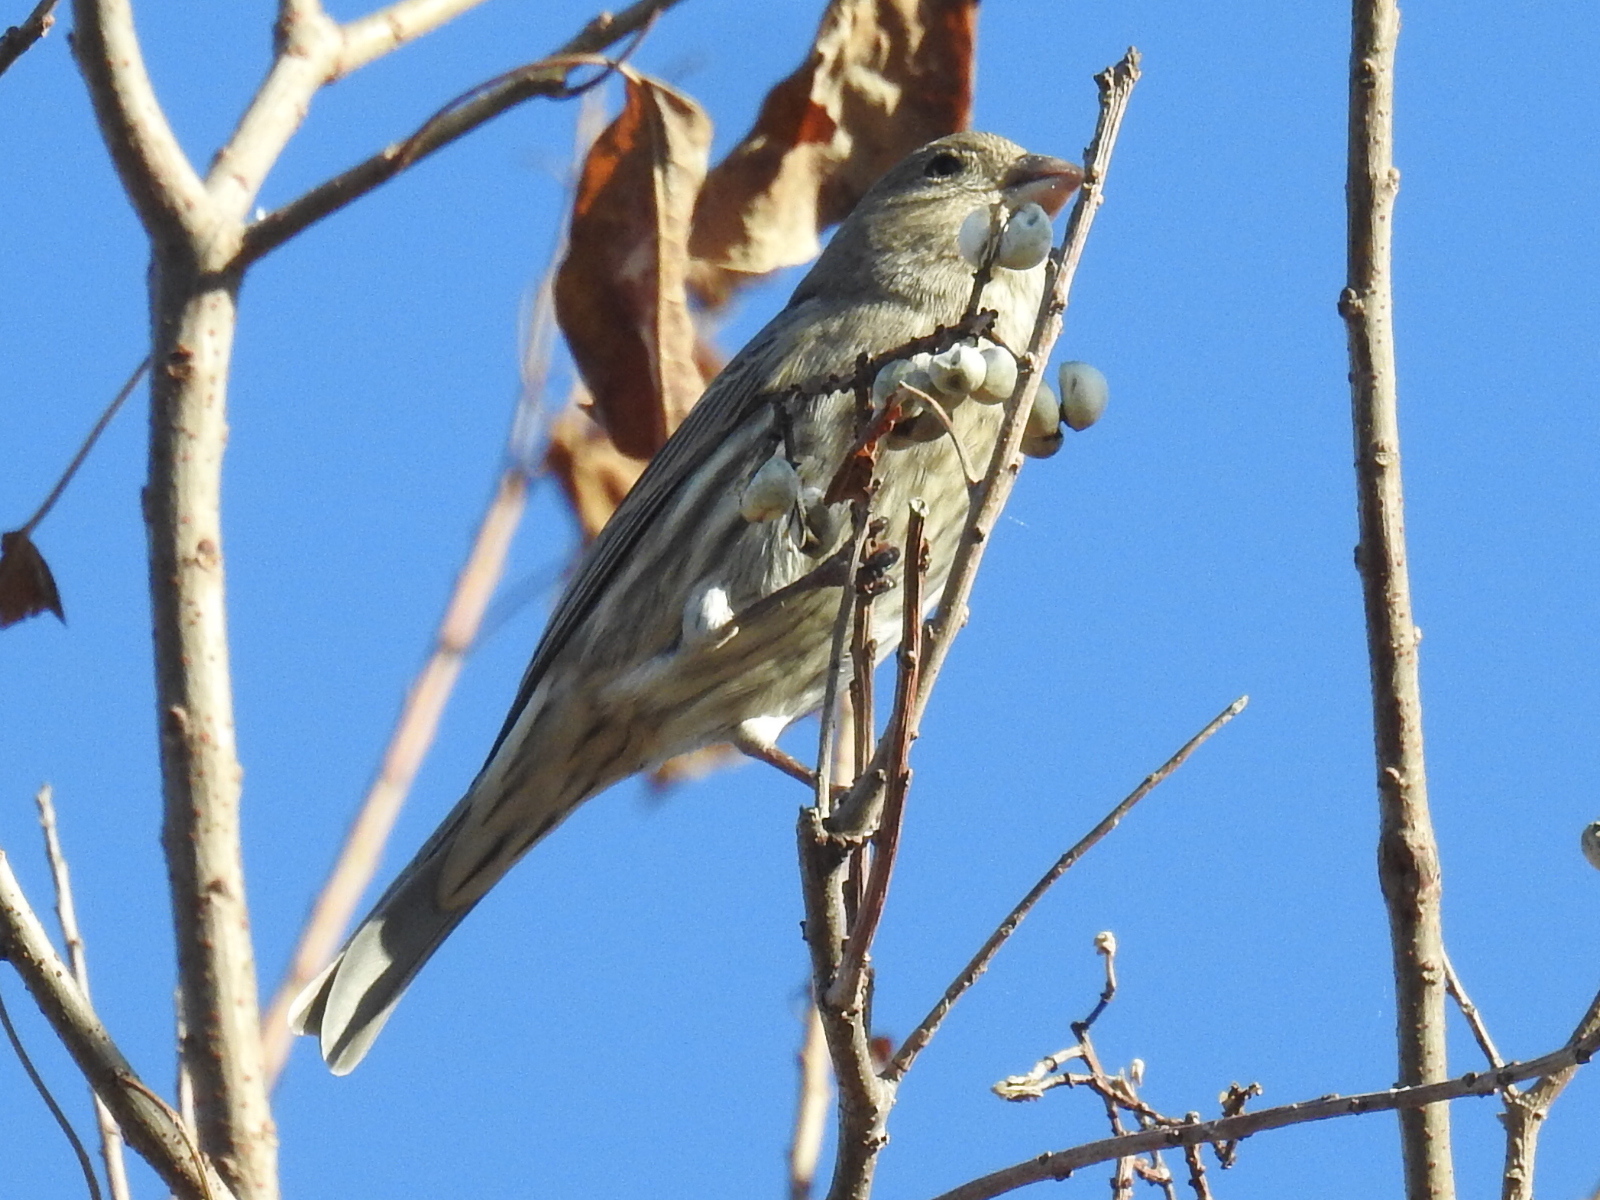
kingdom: Animalia
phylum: Chordata
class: Aves
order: Passeriformes
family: Fringillidae
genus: Haemorhous
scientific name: Haemorhous mexicanus
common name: House finch
